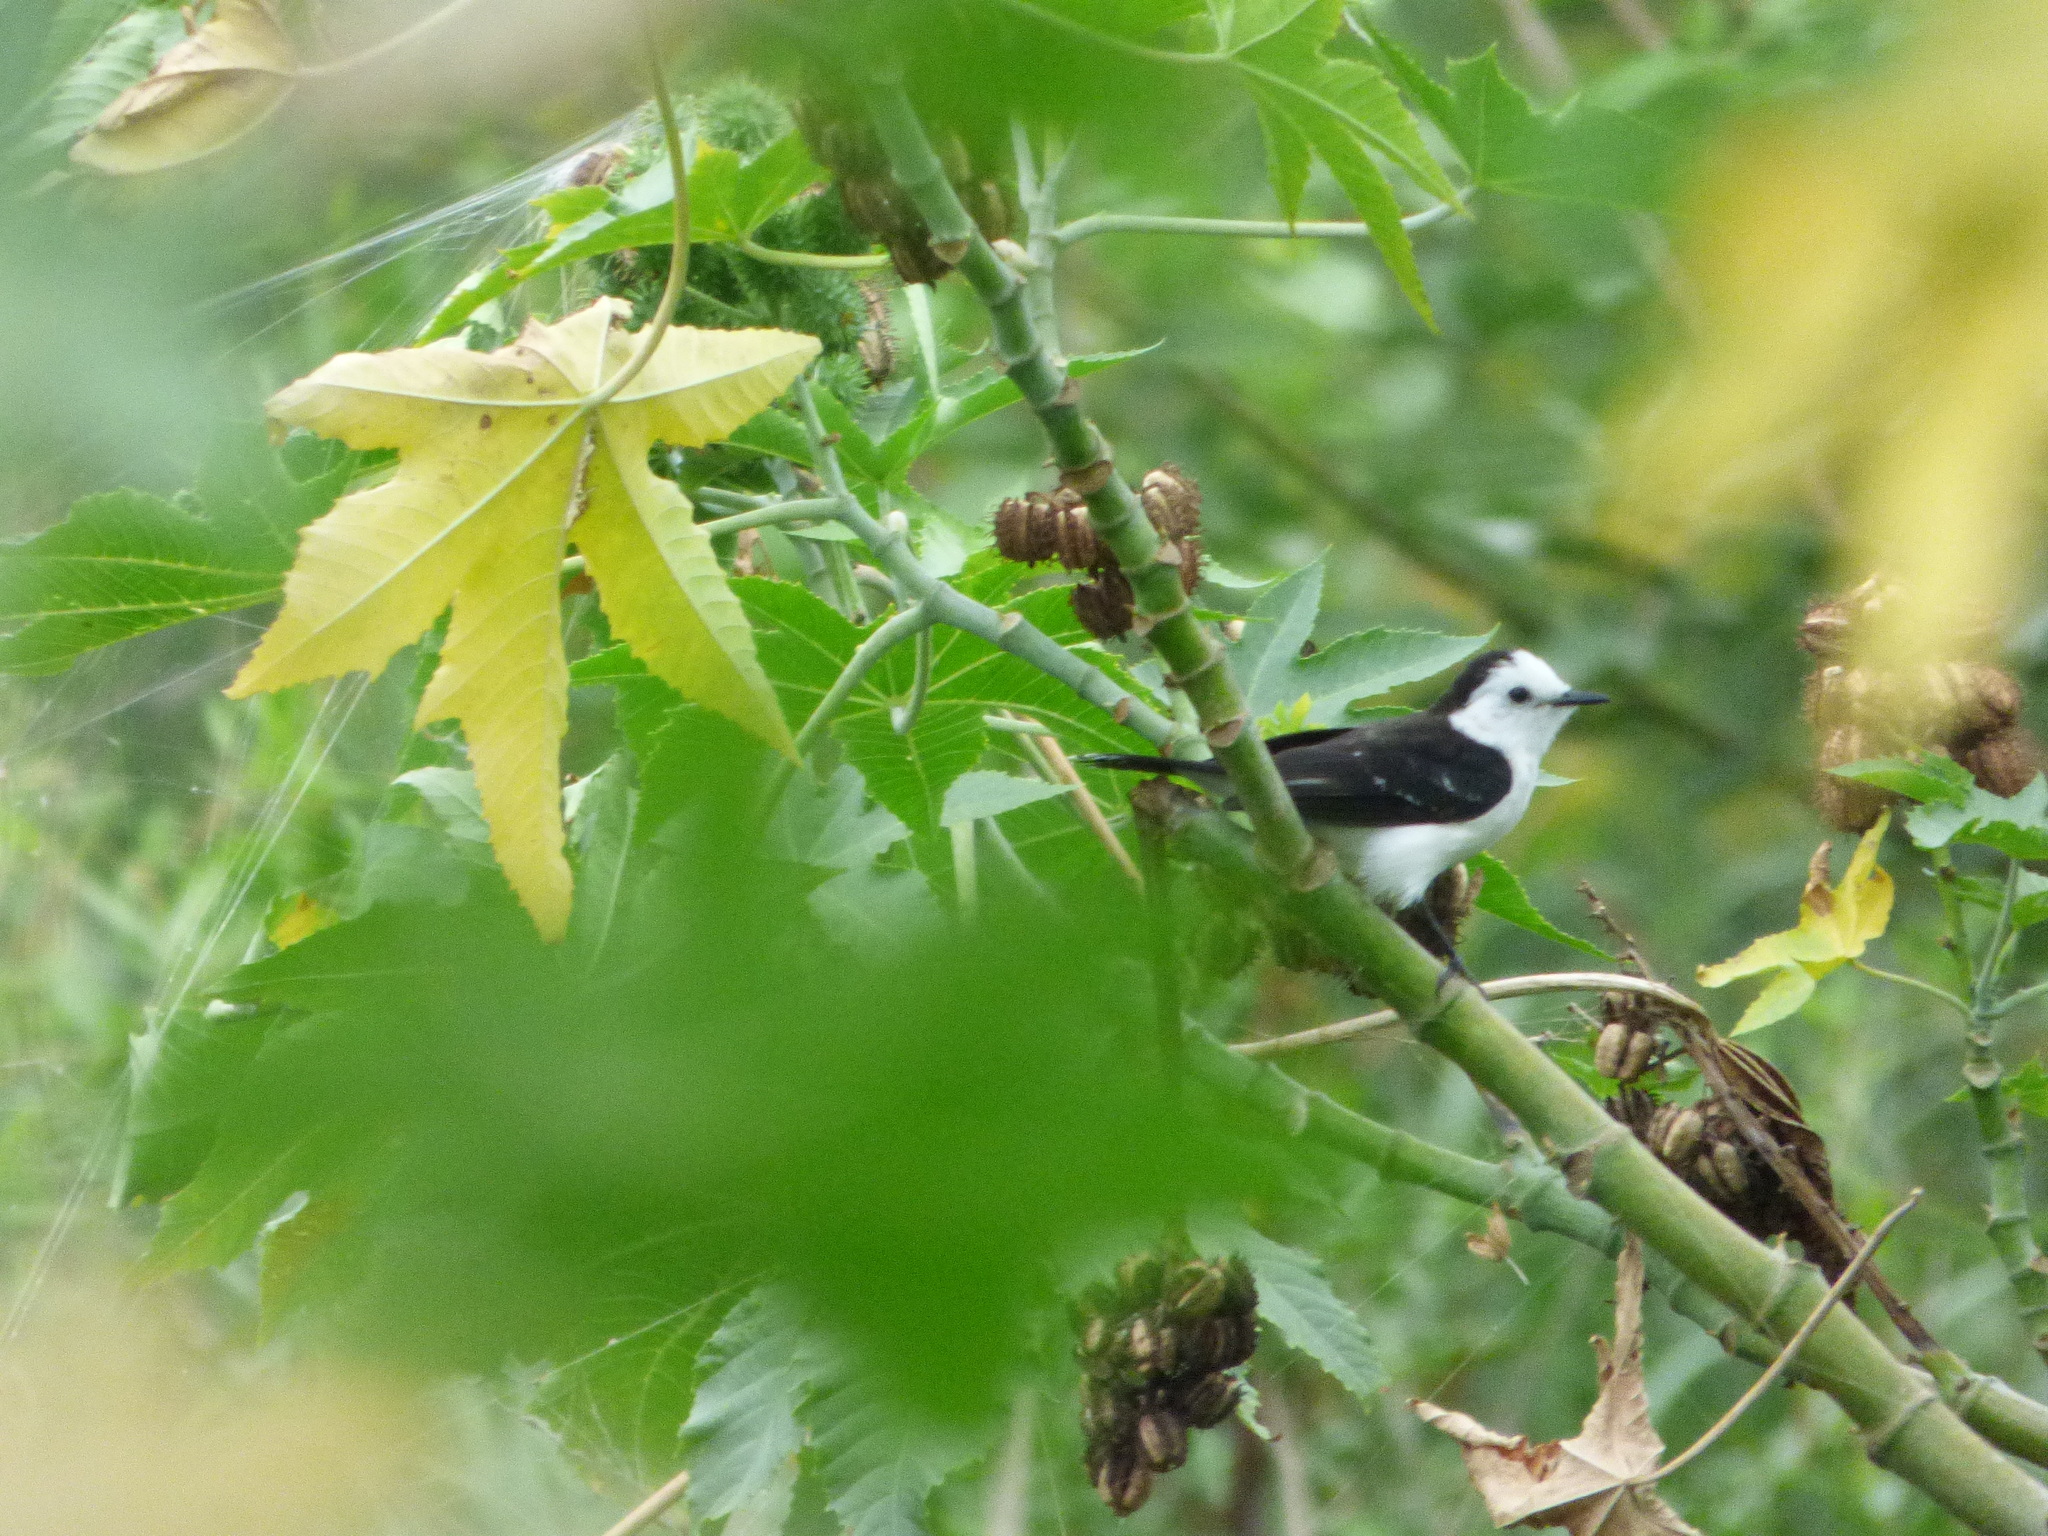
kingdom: Animalia
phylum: Chordata
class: Aves
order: Passeriformes
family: Tyrannidae
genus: Fluvicola
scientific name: Fluvicola pica
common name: Pied water-tyrant
